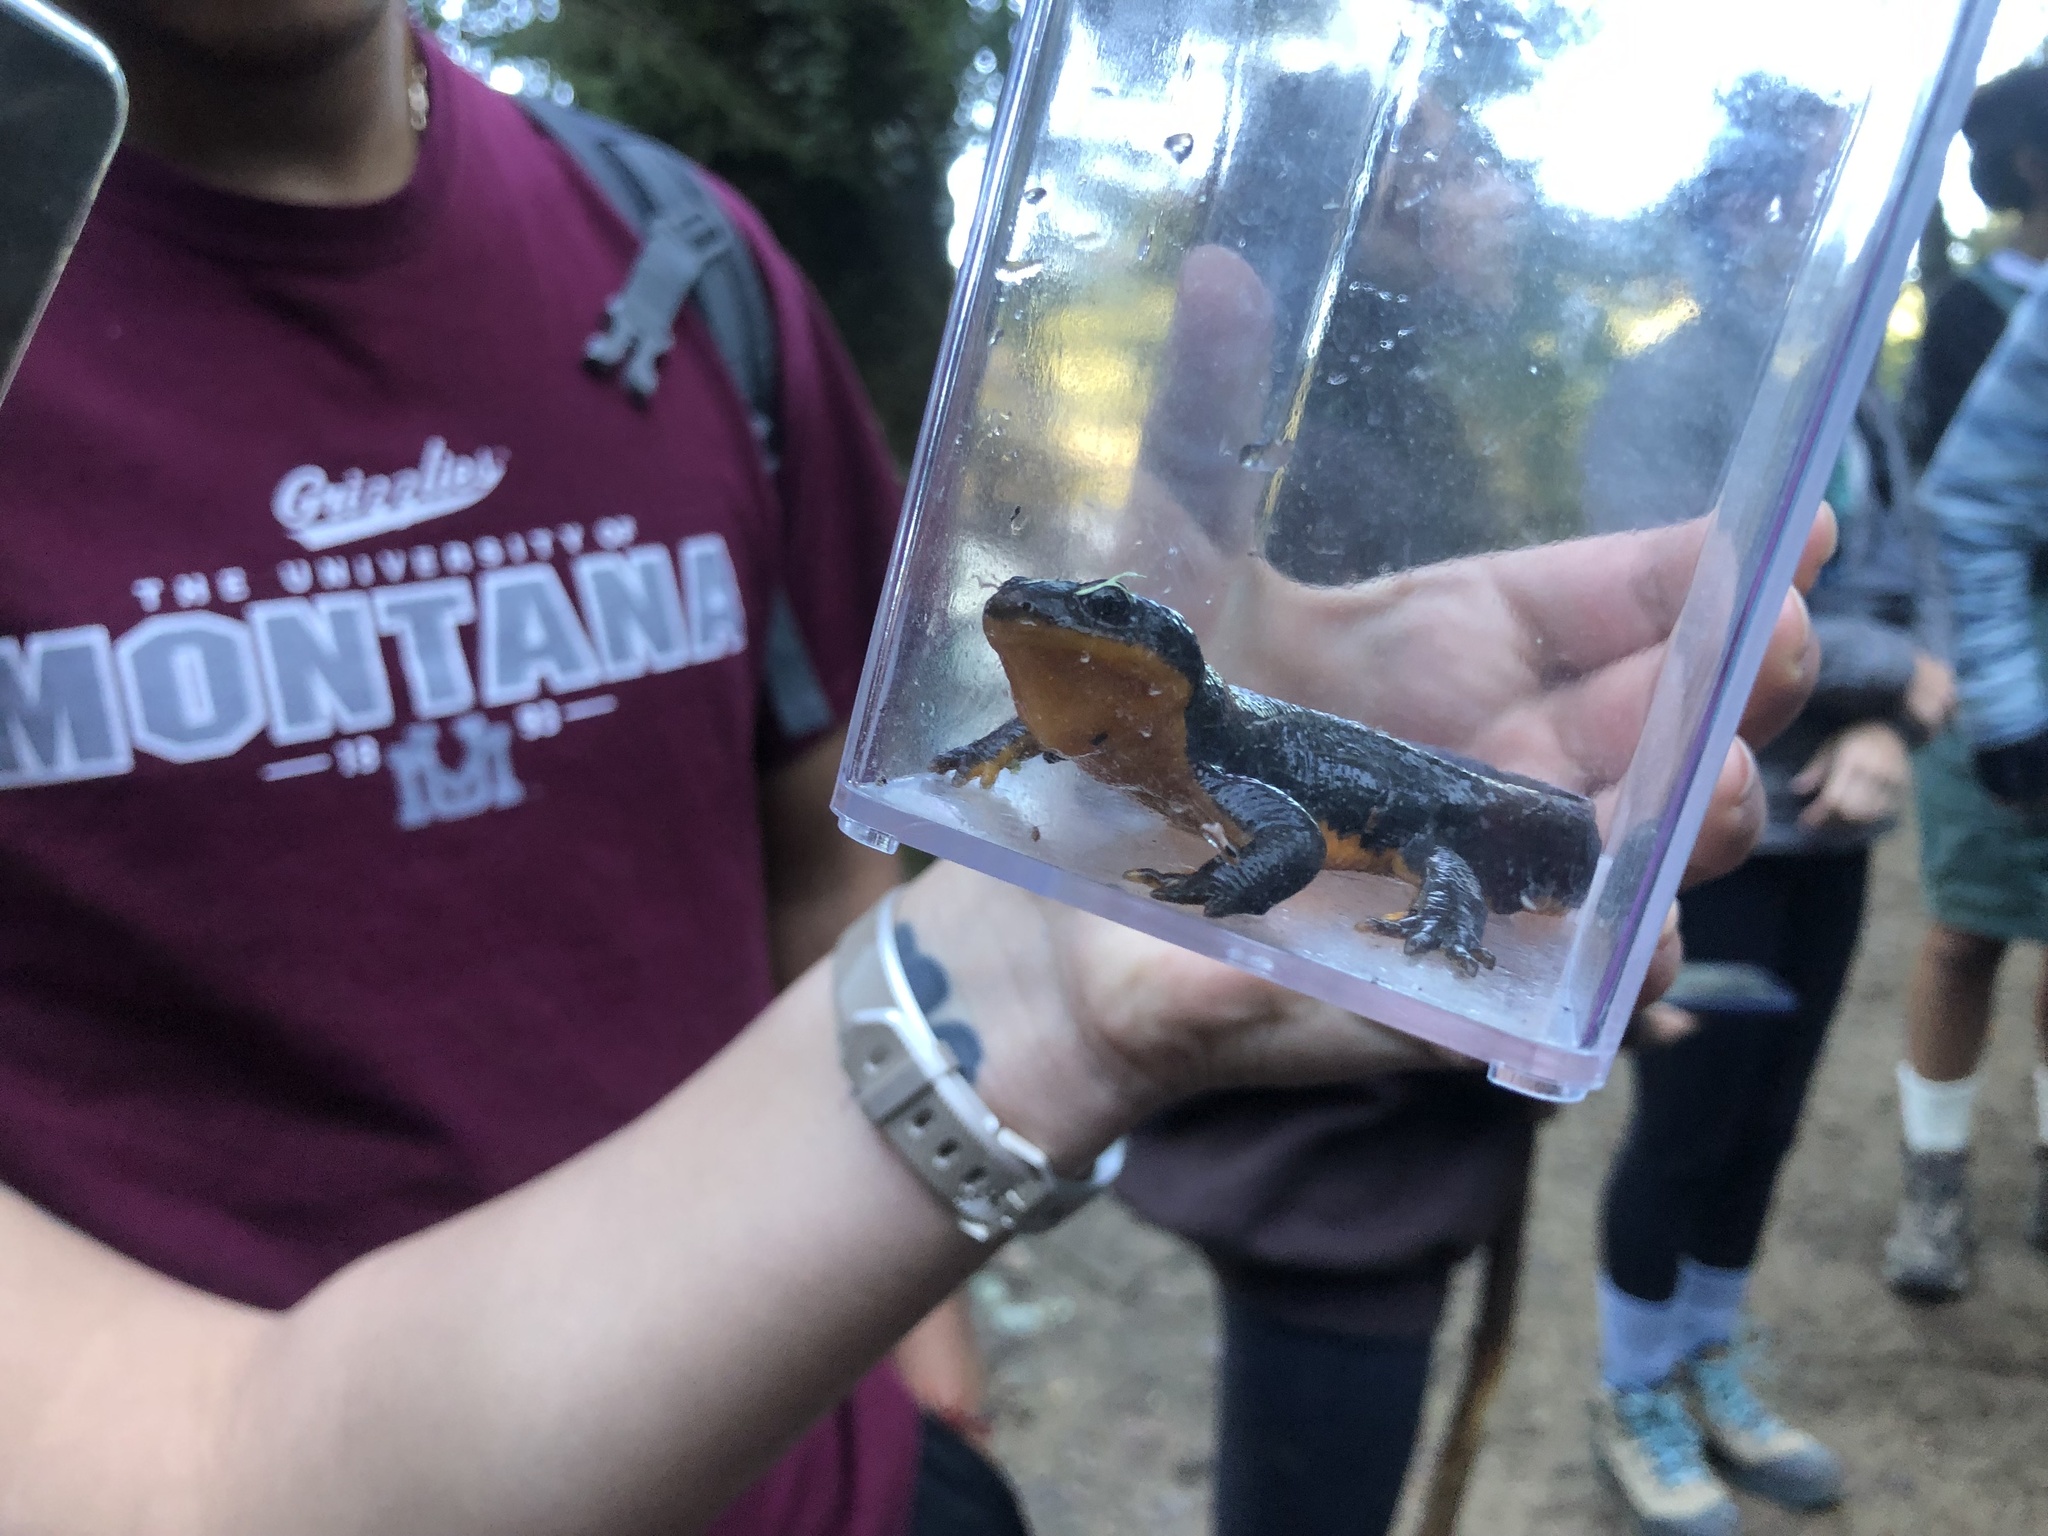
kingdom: Animalia
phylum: Chordata
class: Amphibia
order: Caudata
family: Salamandridae
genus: Taricha
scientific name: Taricha granulosa
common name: Roughskin newt
